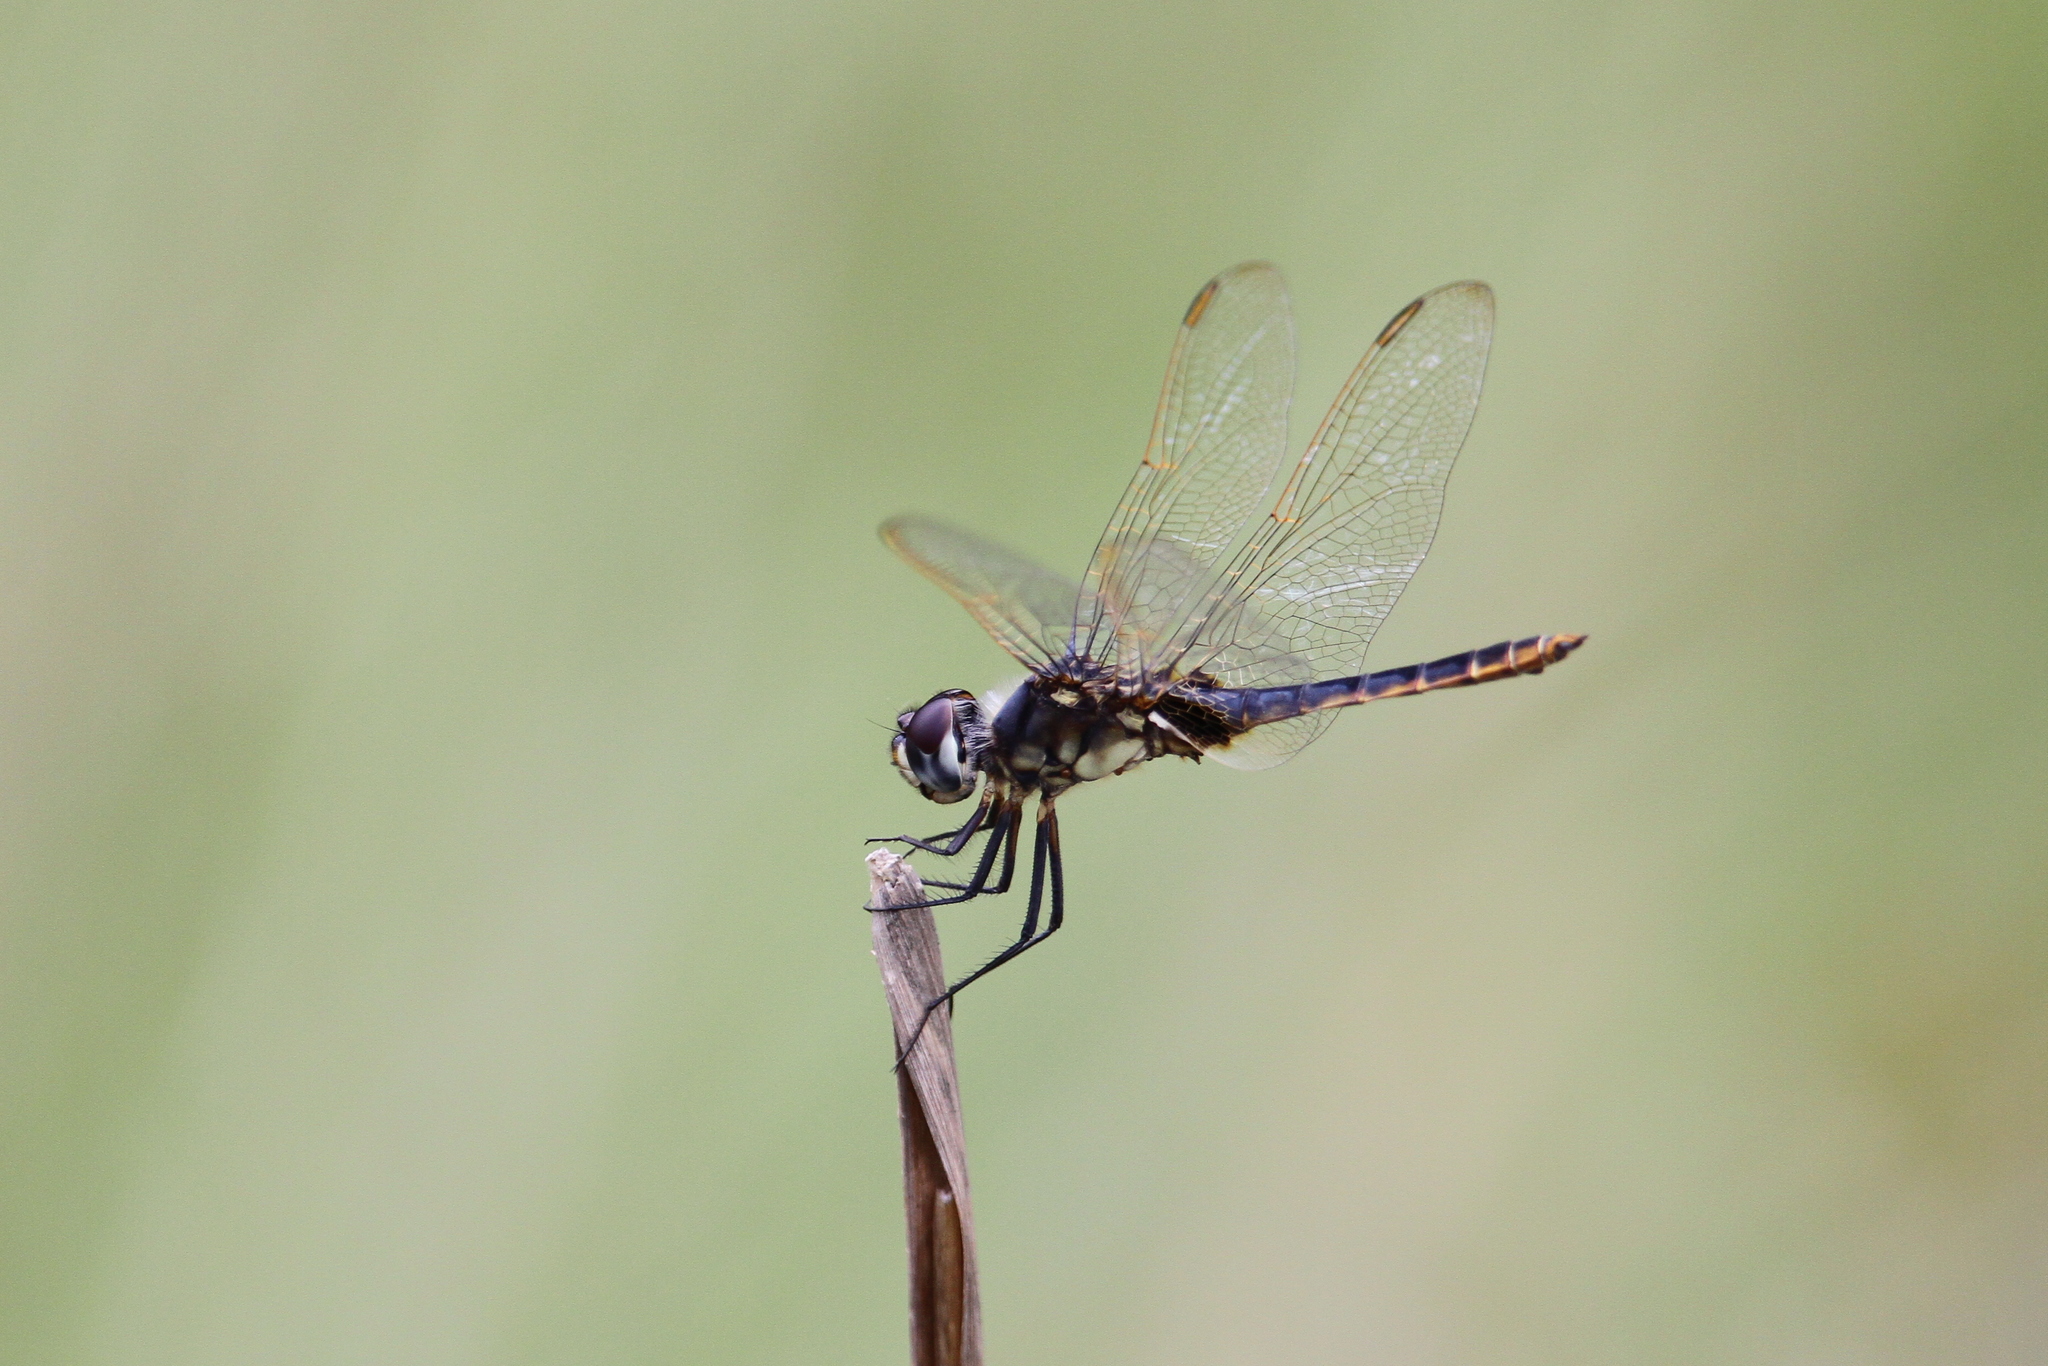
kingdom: Animalia
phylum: Arthropoda
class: Insecta
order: Odonata
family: Libellulidae
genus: Urothemis
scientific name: Urothemis edwardsii
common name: Blue basker
